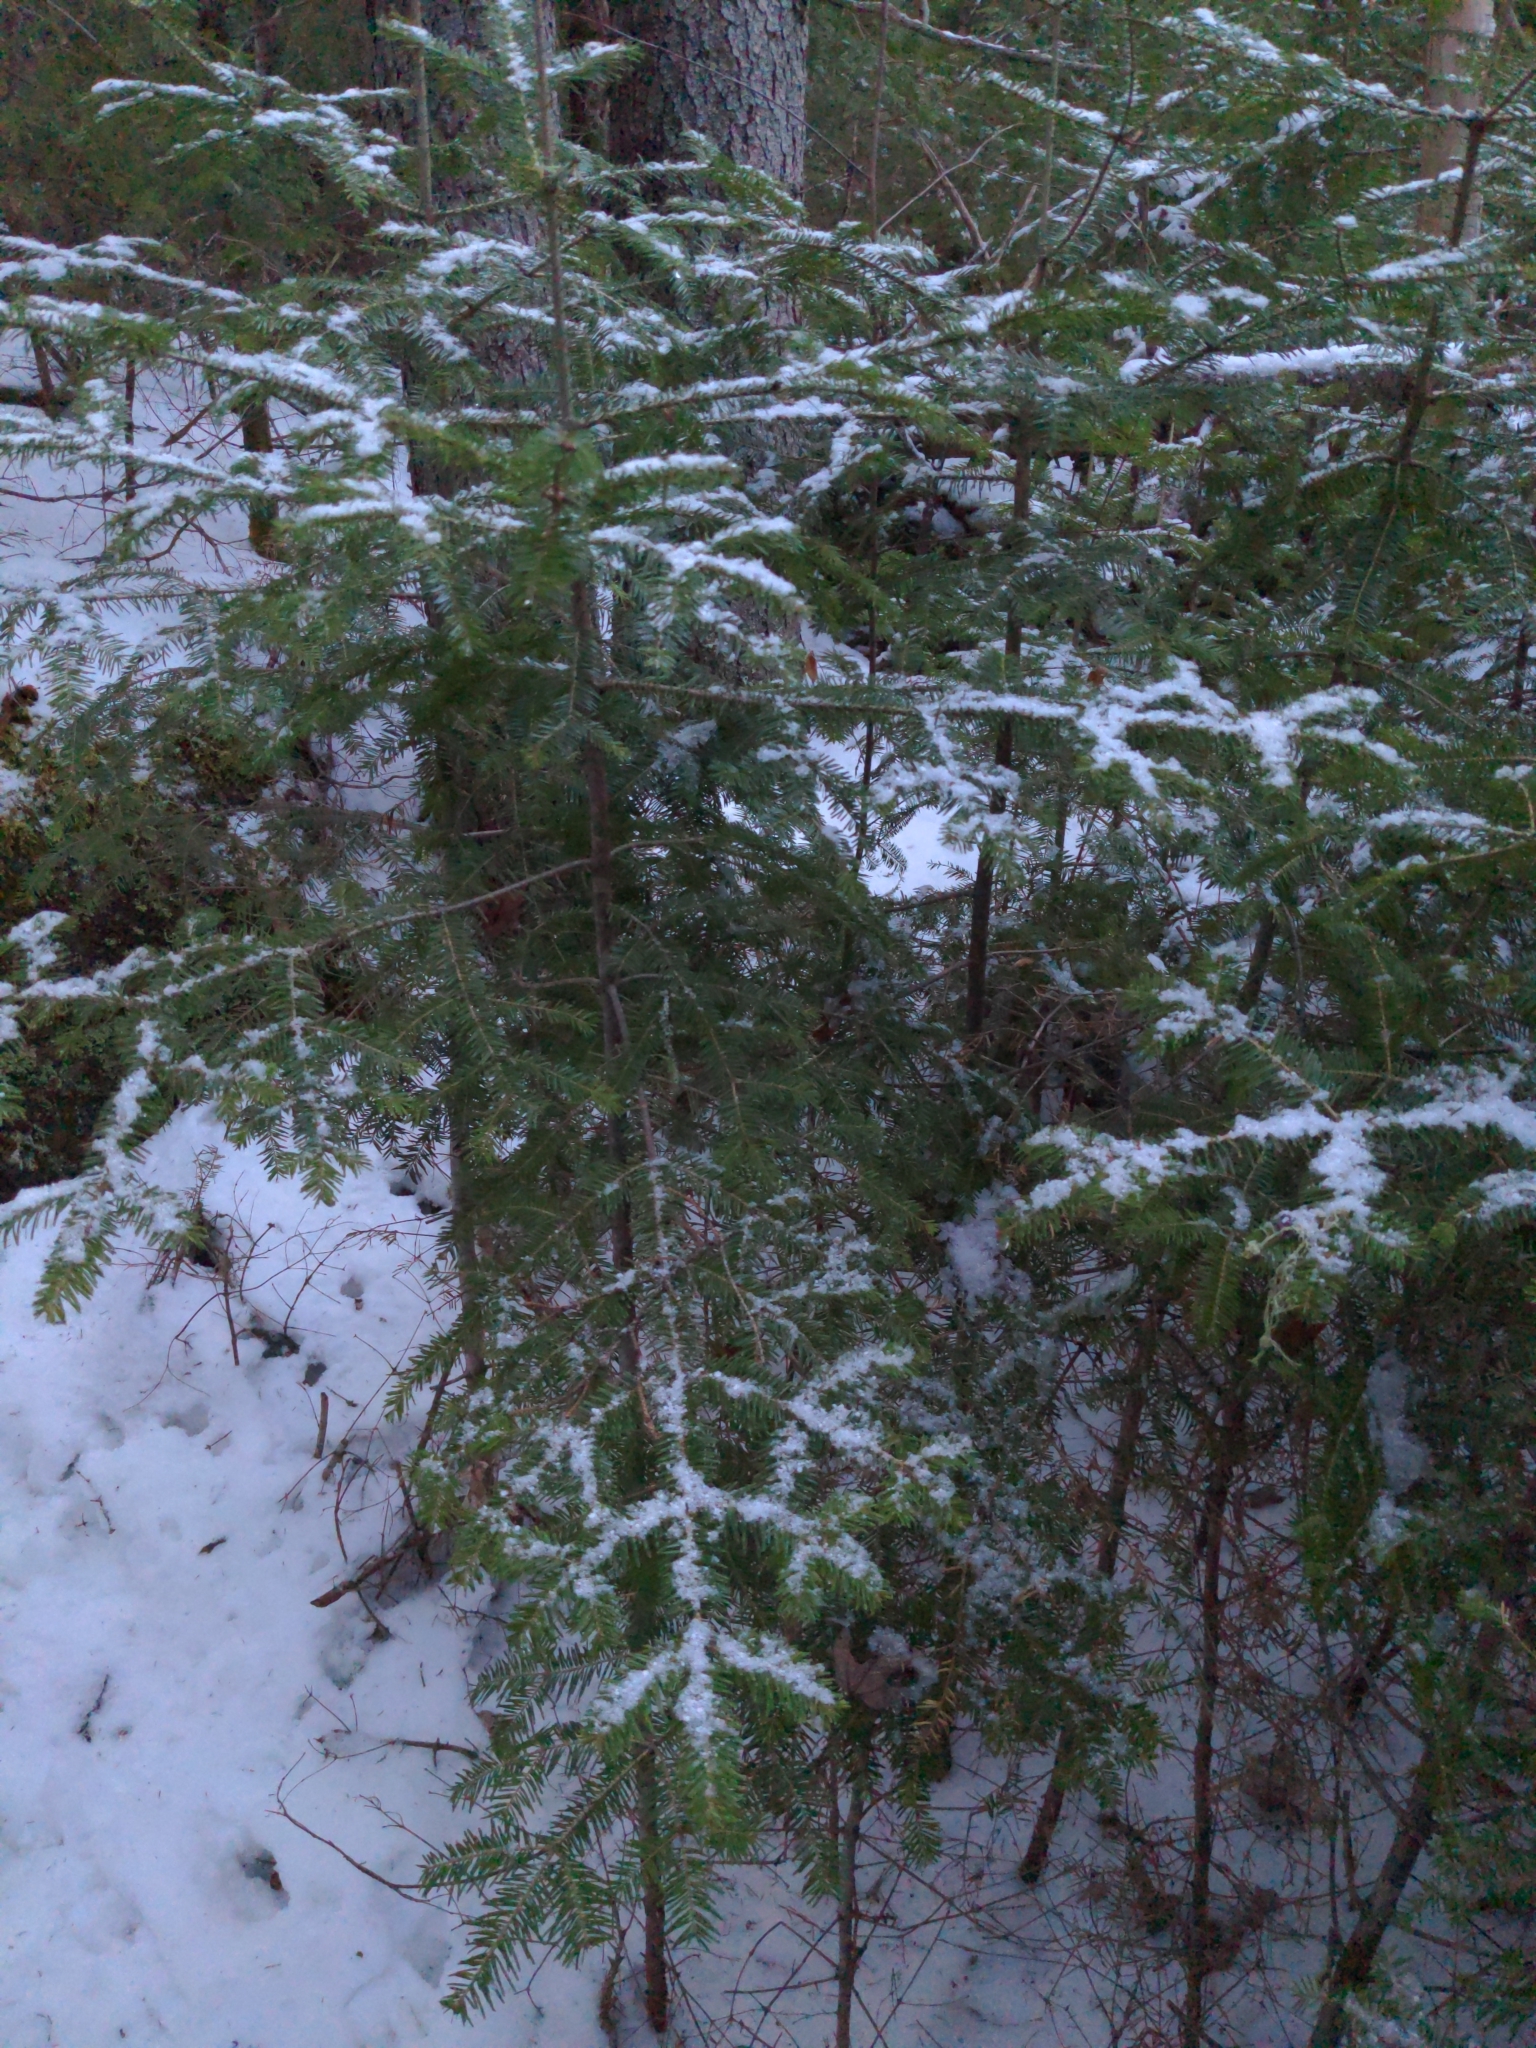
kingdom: Plantae
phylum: Tracheophyta
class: Pinopsida
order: Pinales
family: Pinaceae
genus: Abies
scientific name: Abies balsamea
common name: Balsam fir
